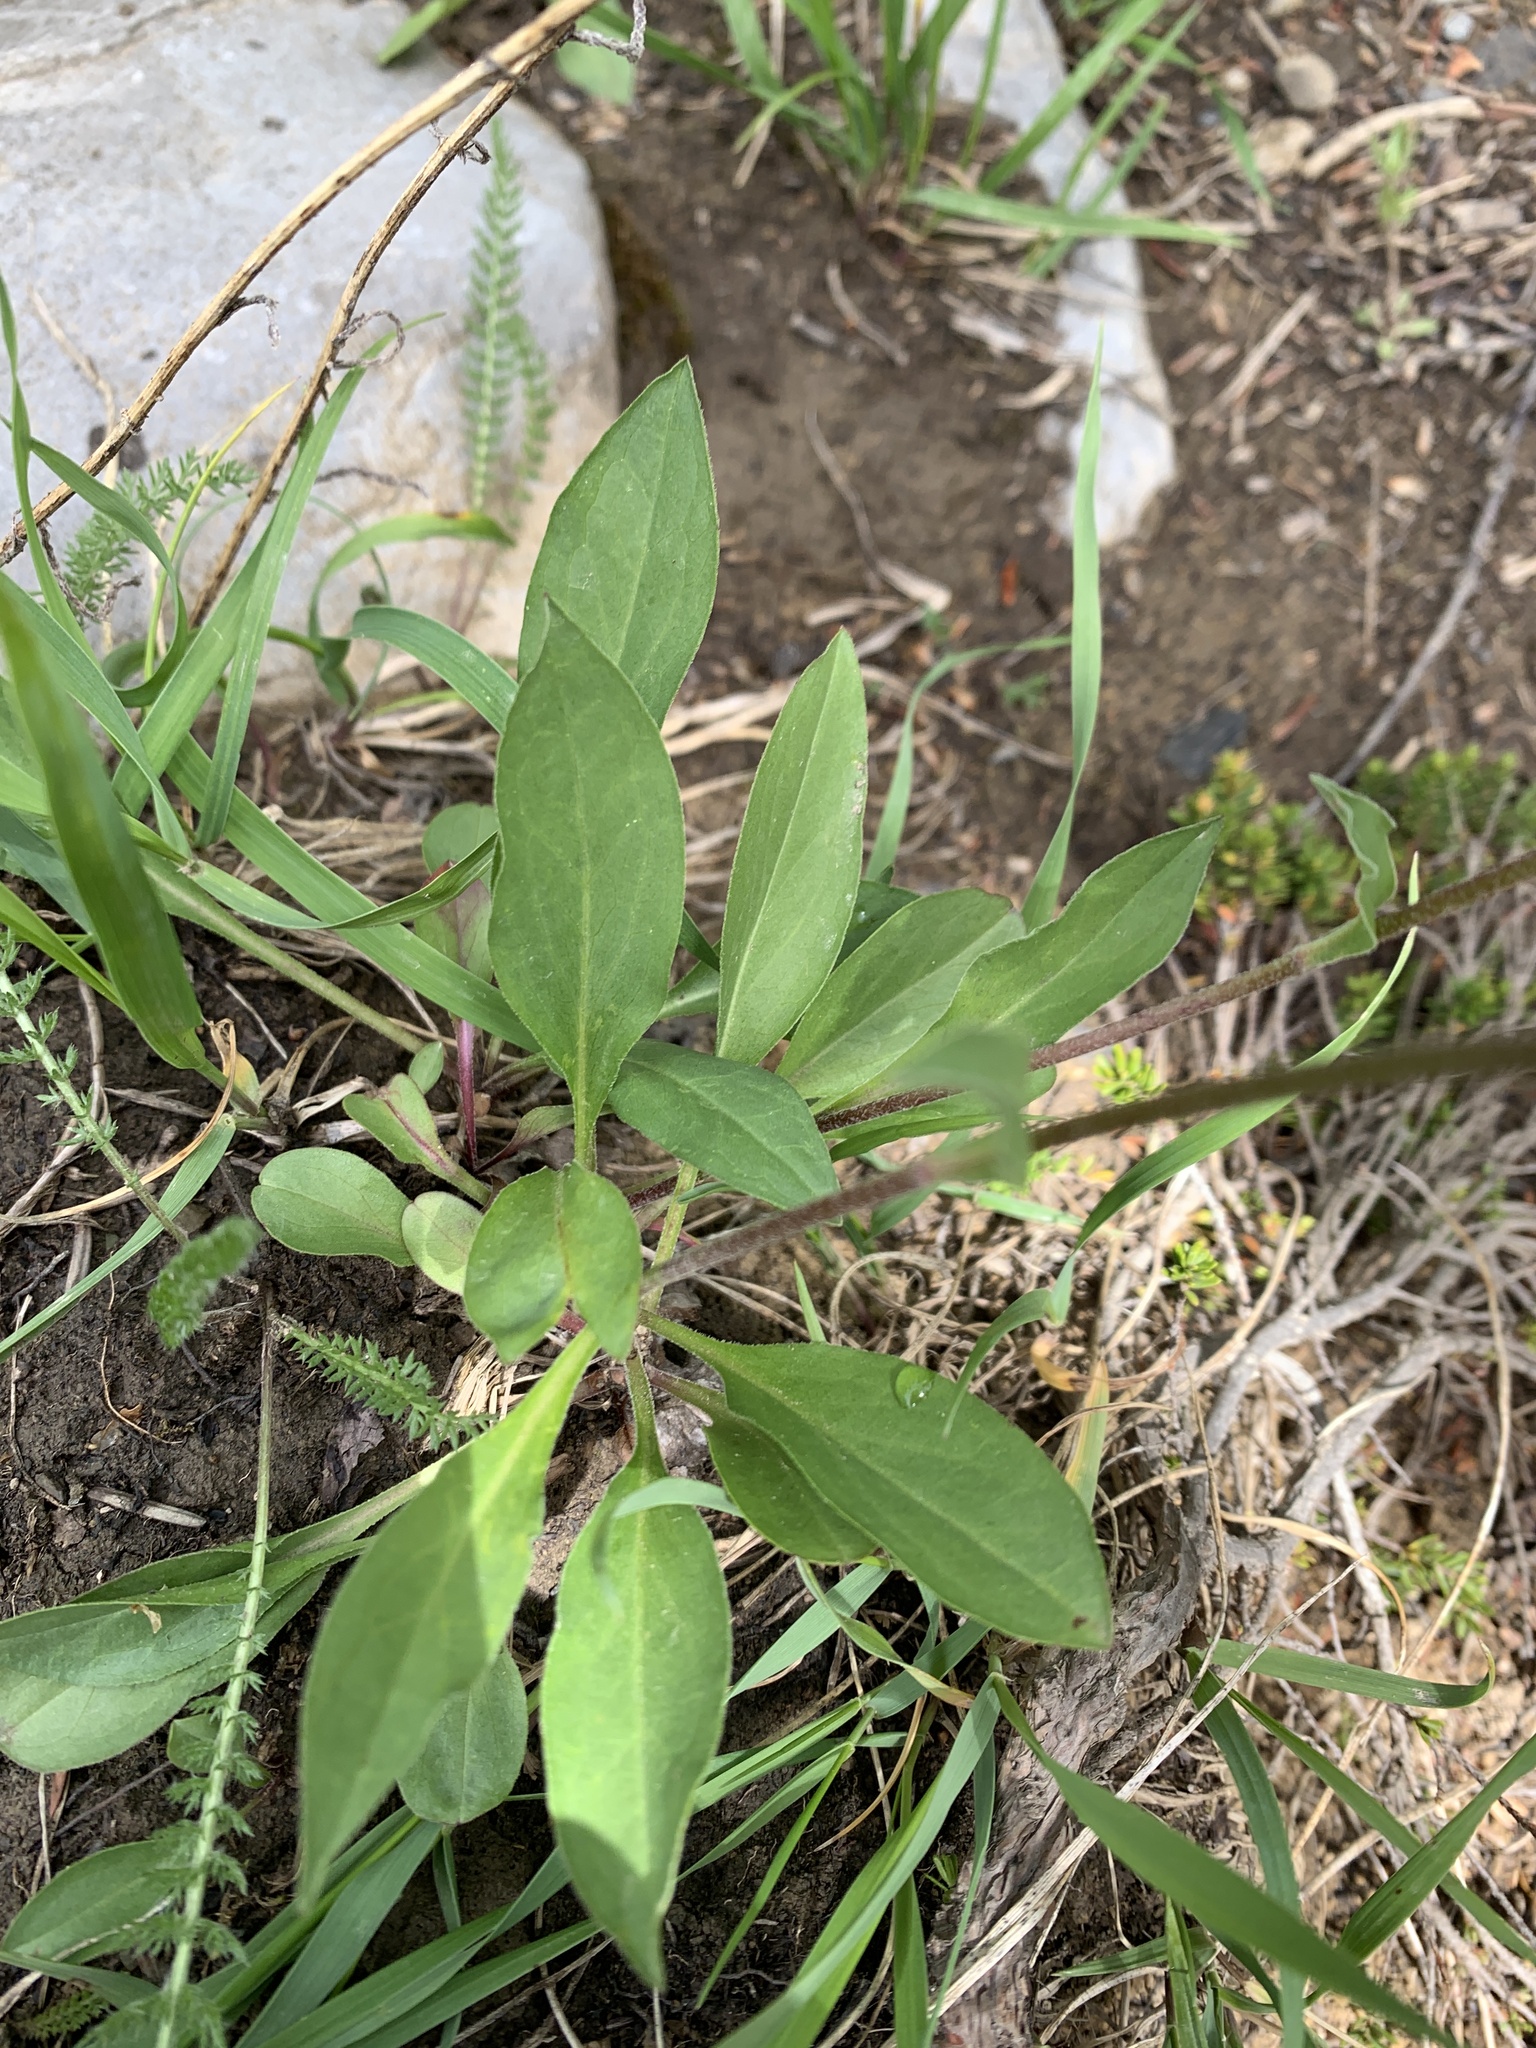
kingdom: Plantae
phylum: Tracheophyta
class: Magnoliopsida
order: Asterales
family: Asteraceae
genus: Erigeron
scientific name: Erigeron glacialis
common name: Subalpine fleabane
